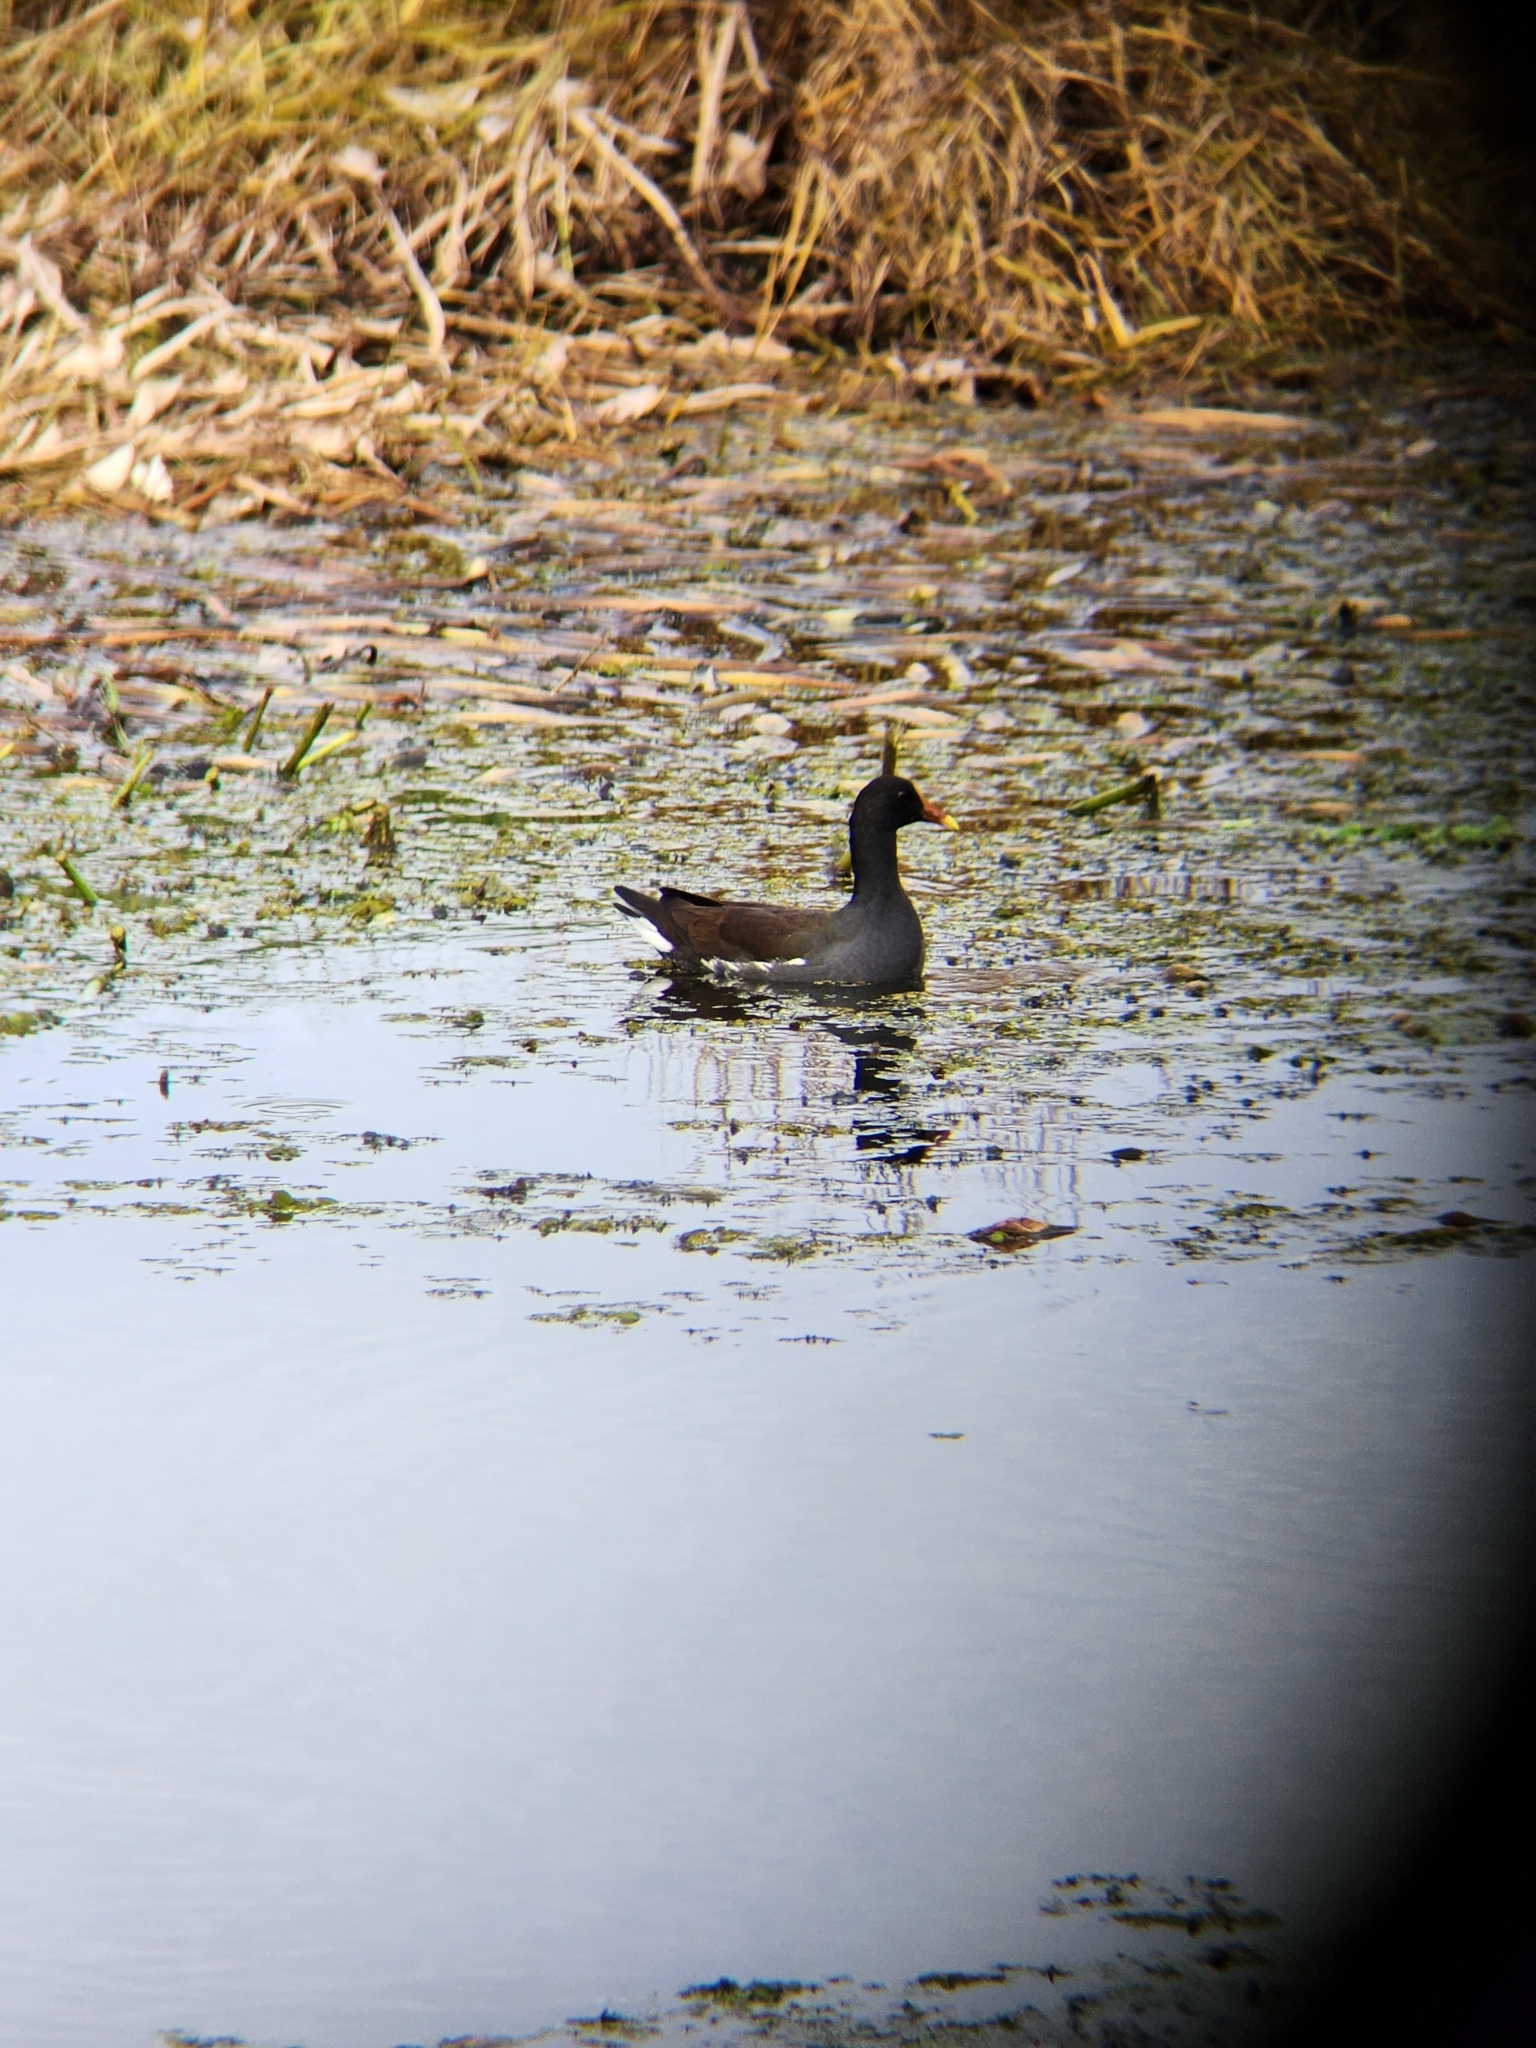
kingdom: Animalia
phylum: Chordata
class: Aves
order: Gruiformes
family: Rallidae
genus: Gallinula
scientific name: Gallinula chloropus
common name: Common moorhen
